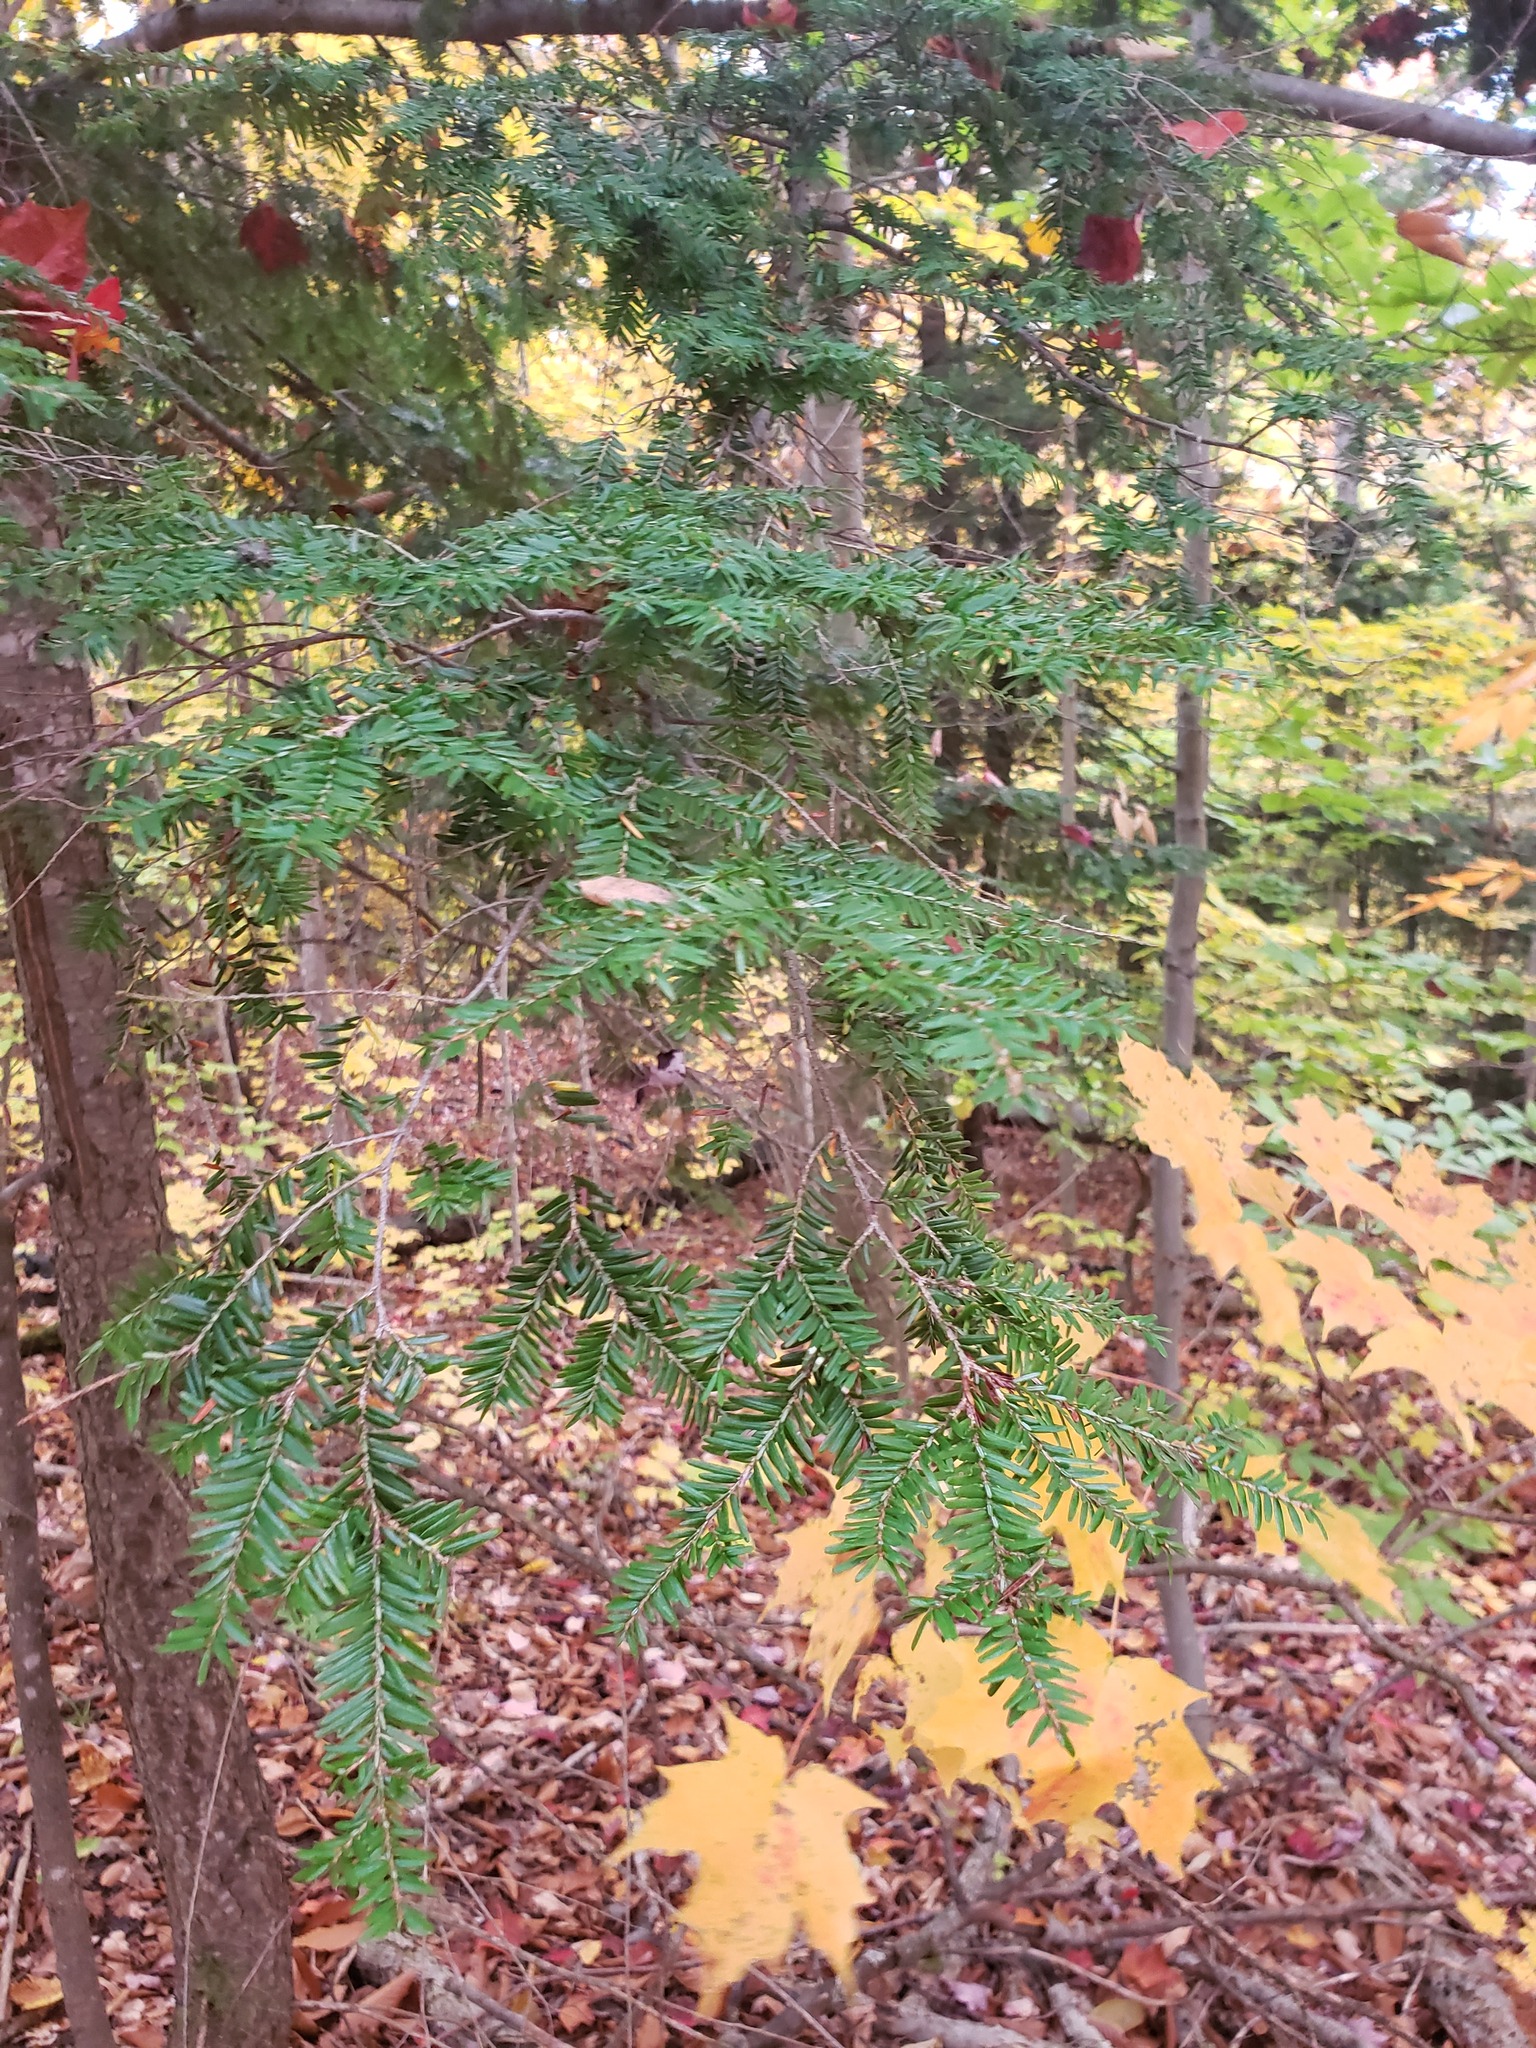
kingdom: Plantae
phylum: Tracheophyta
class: Pinopsida
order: Pinales
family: Pinaceae
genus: Tsuga
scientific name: Tsuga canadensis
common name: Eastern hemlock
